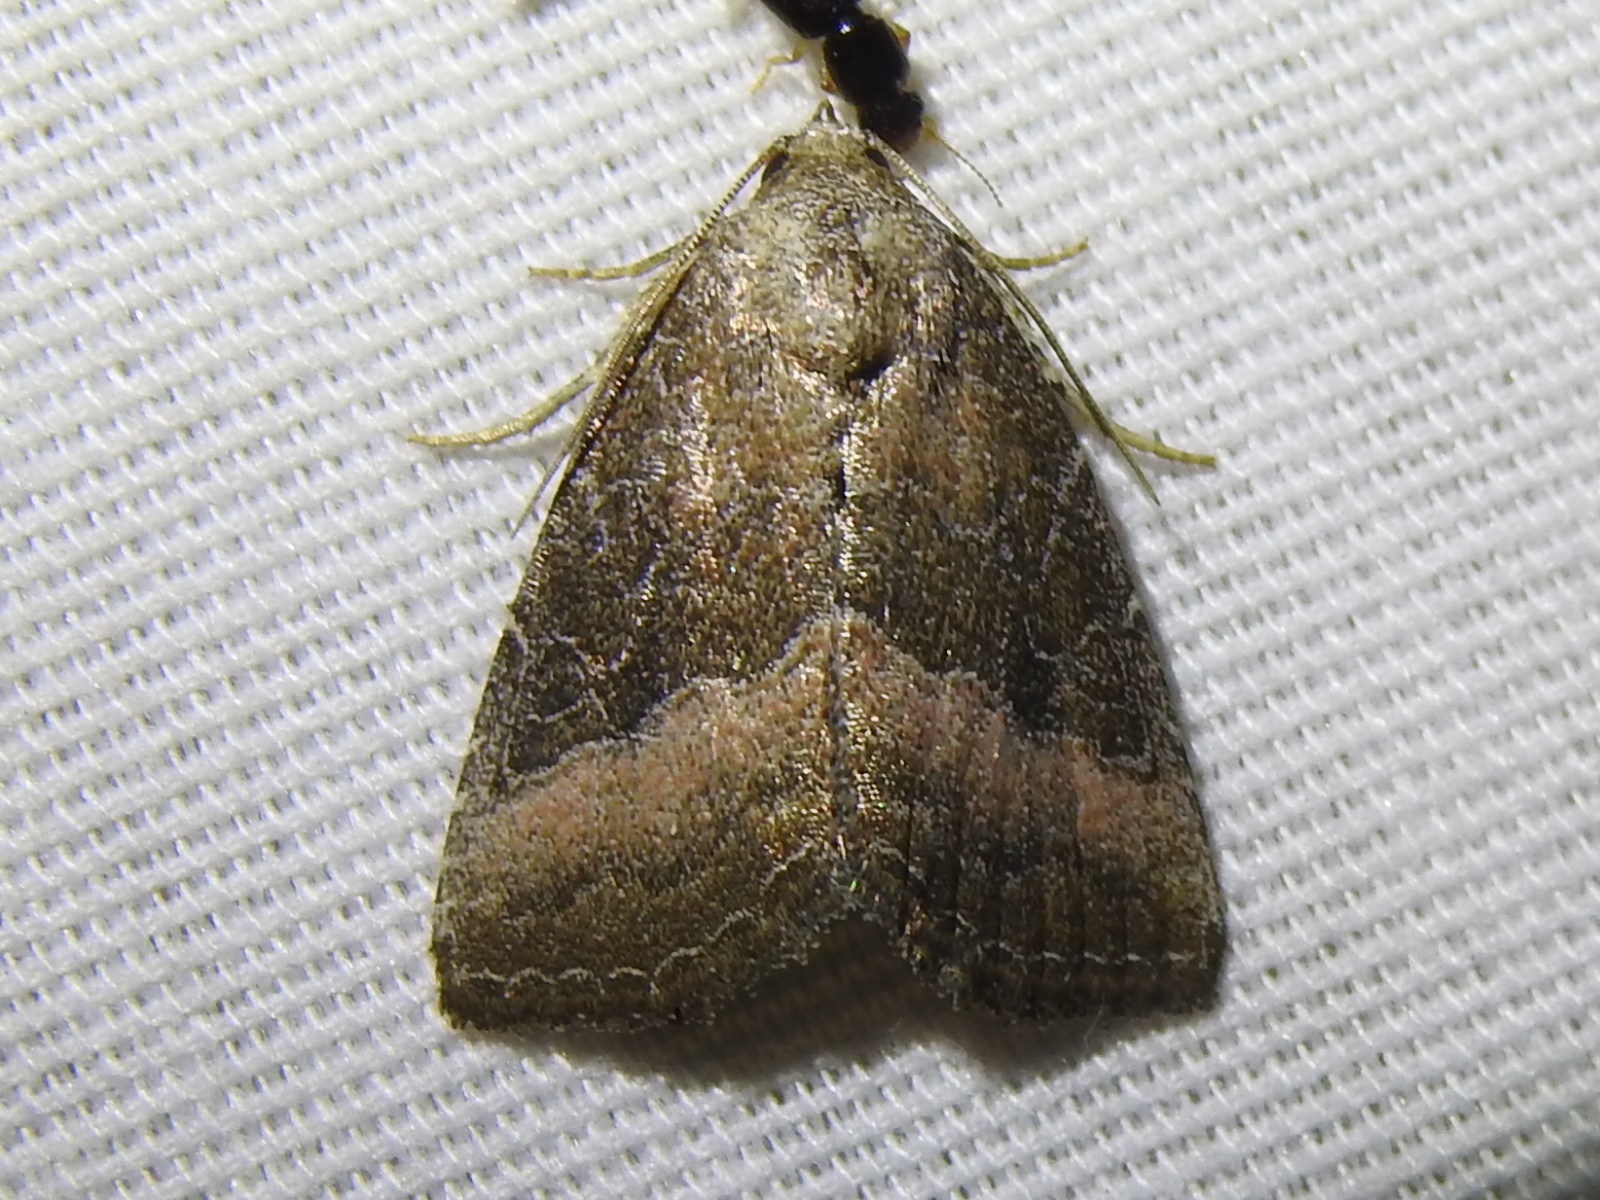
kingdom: Animalia
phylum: Arthropoda
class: Insecta
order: Lepidoptera
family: Noctuidae
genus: Ogdoconta
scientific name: Ogdoconta cinereola
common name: Common pinkband
